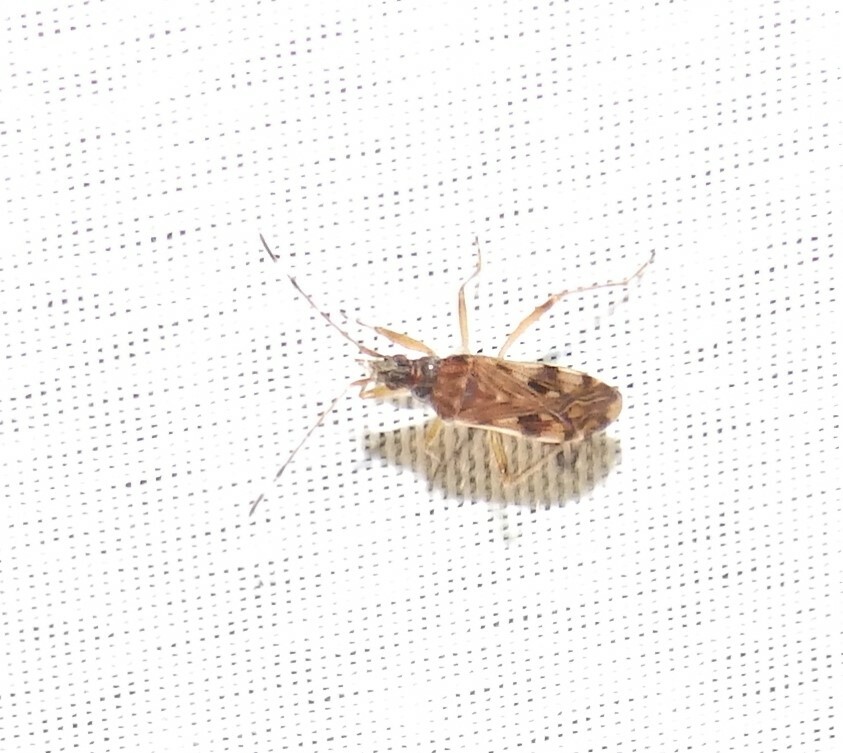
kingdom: Animalia
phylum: Arthropoda
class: Insecta
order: Hemiptera
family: Rhyparochromidae
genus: Ozophora
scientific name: Ozophora picturata
